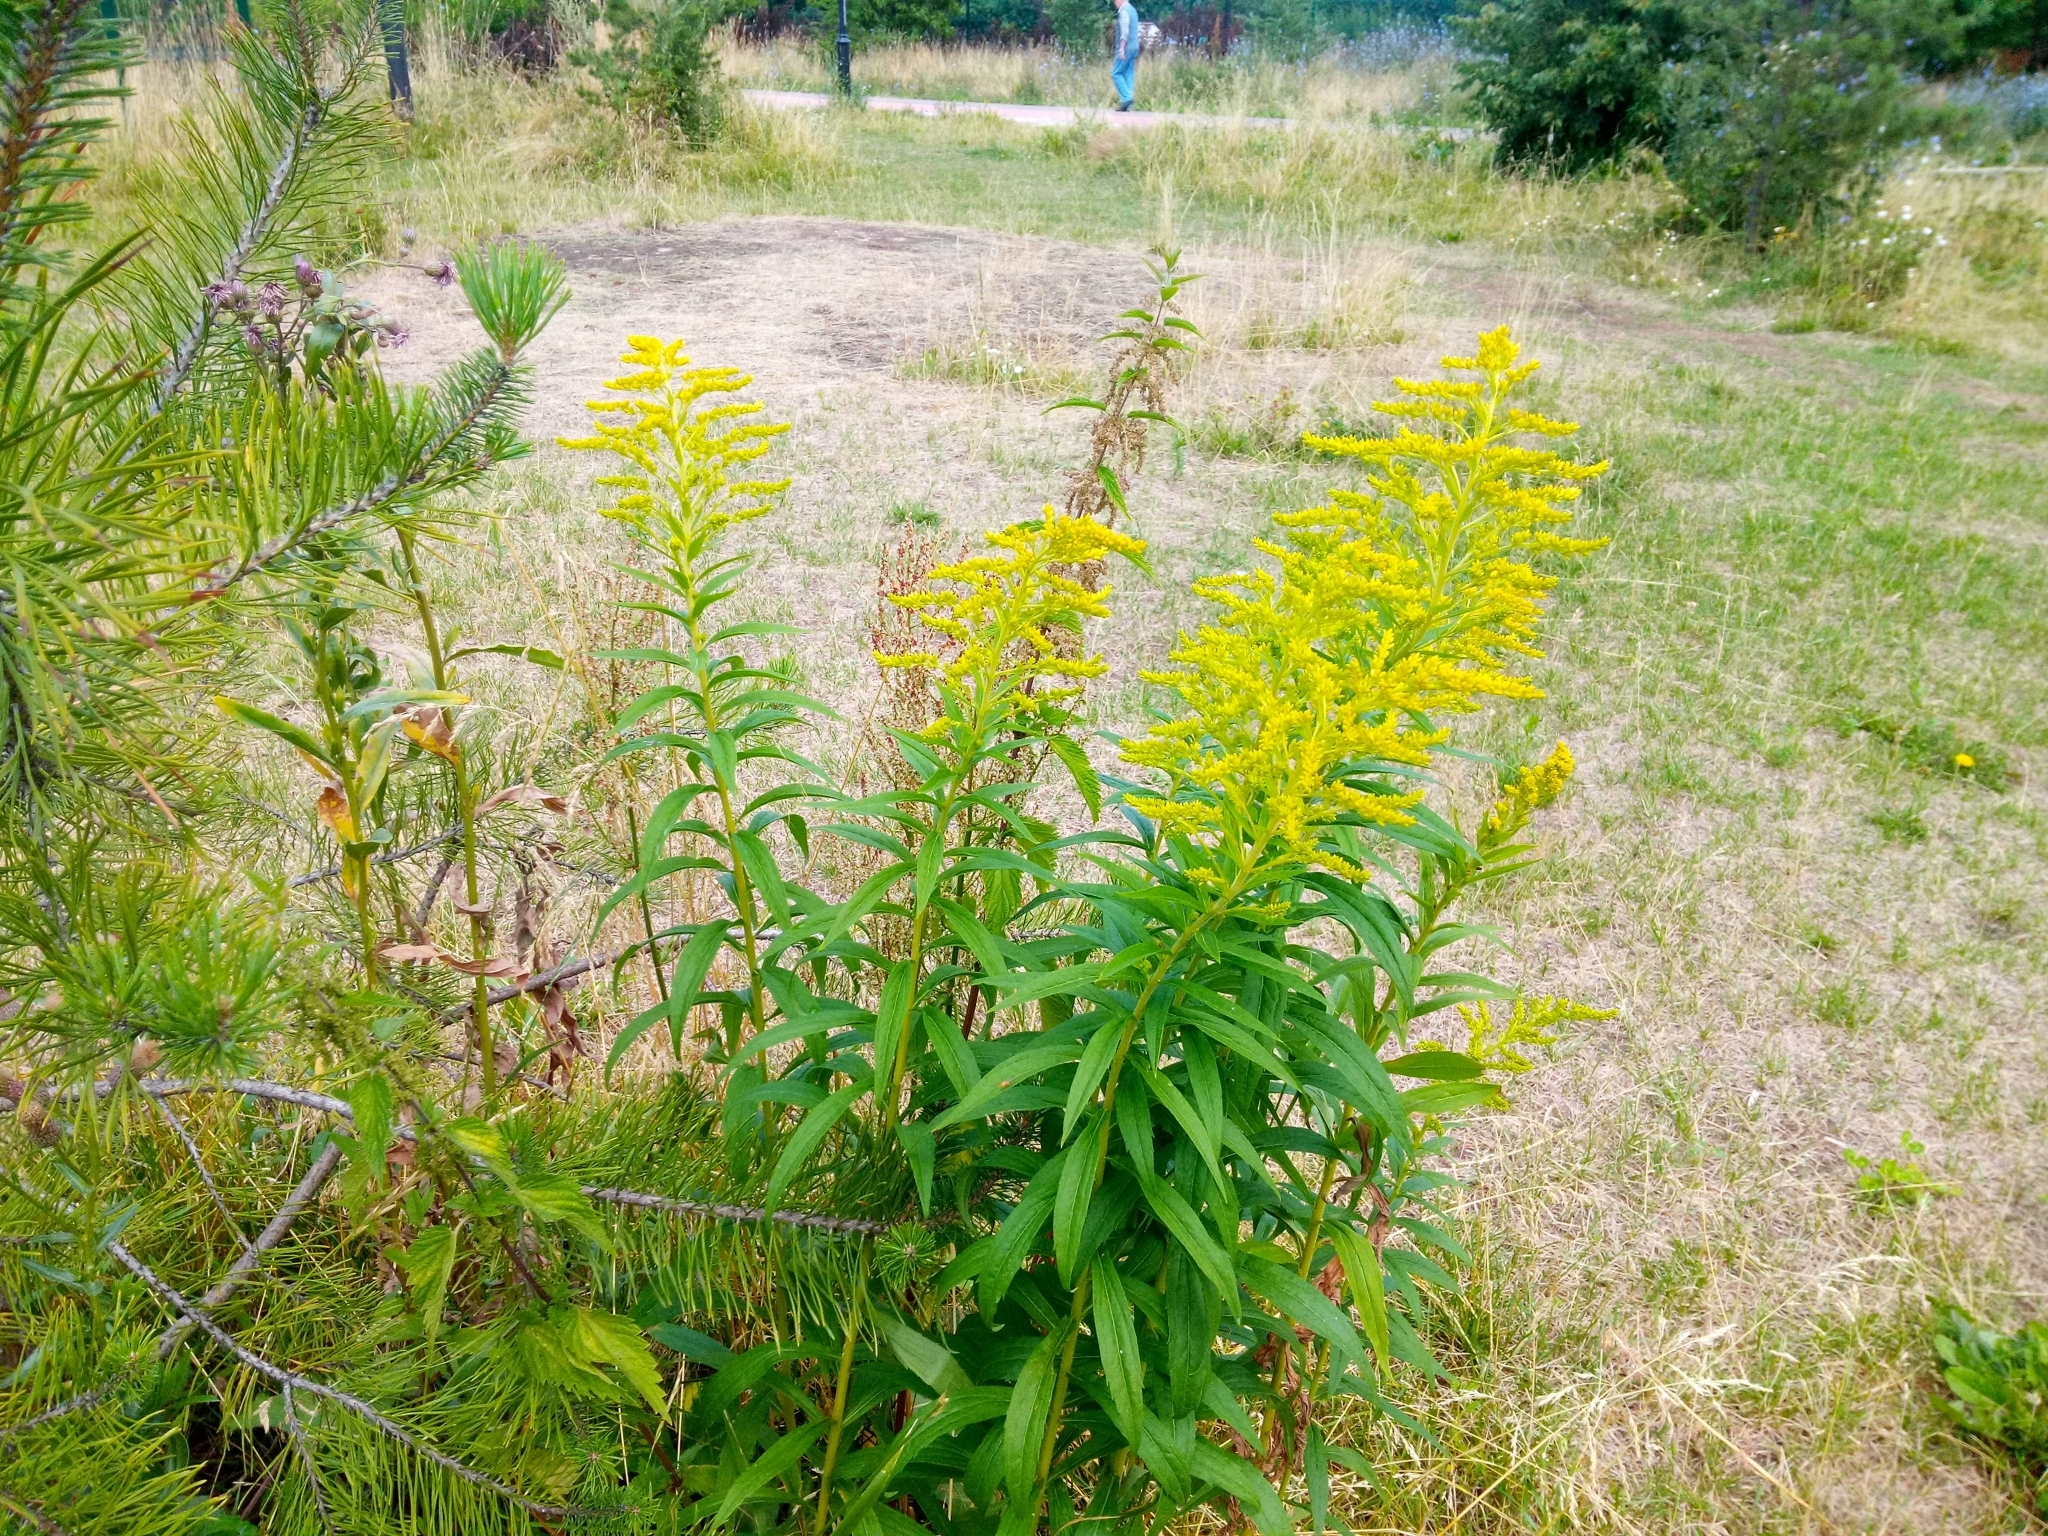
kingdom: Plantae
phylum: Tracheophyta
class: Magnoliopsida
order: Asterales
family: Asteraceae
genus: Solidago
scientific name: Solidago canadensis
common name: Canada goldenrod
